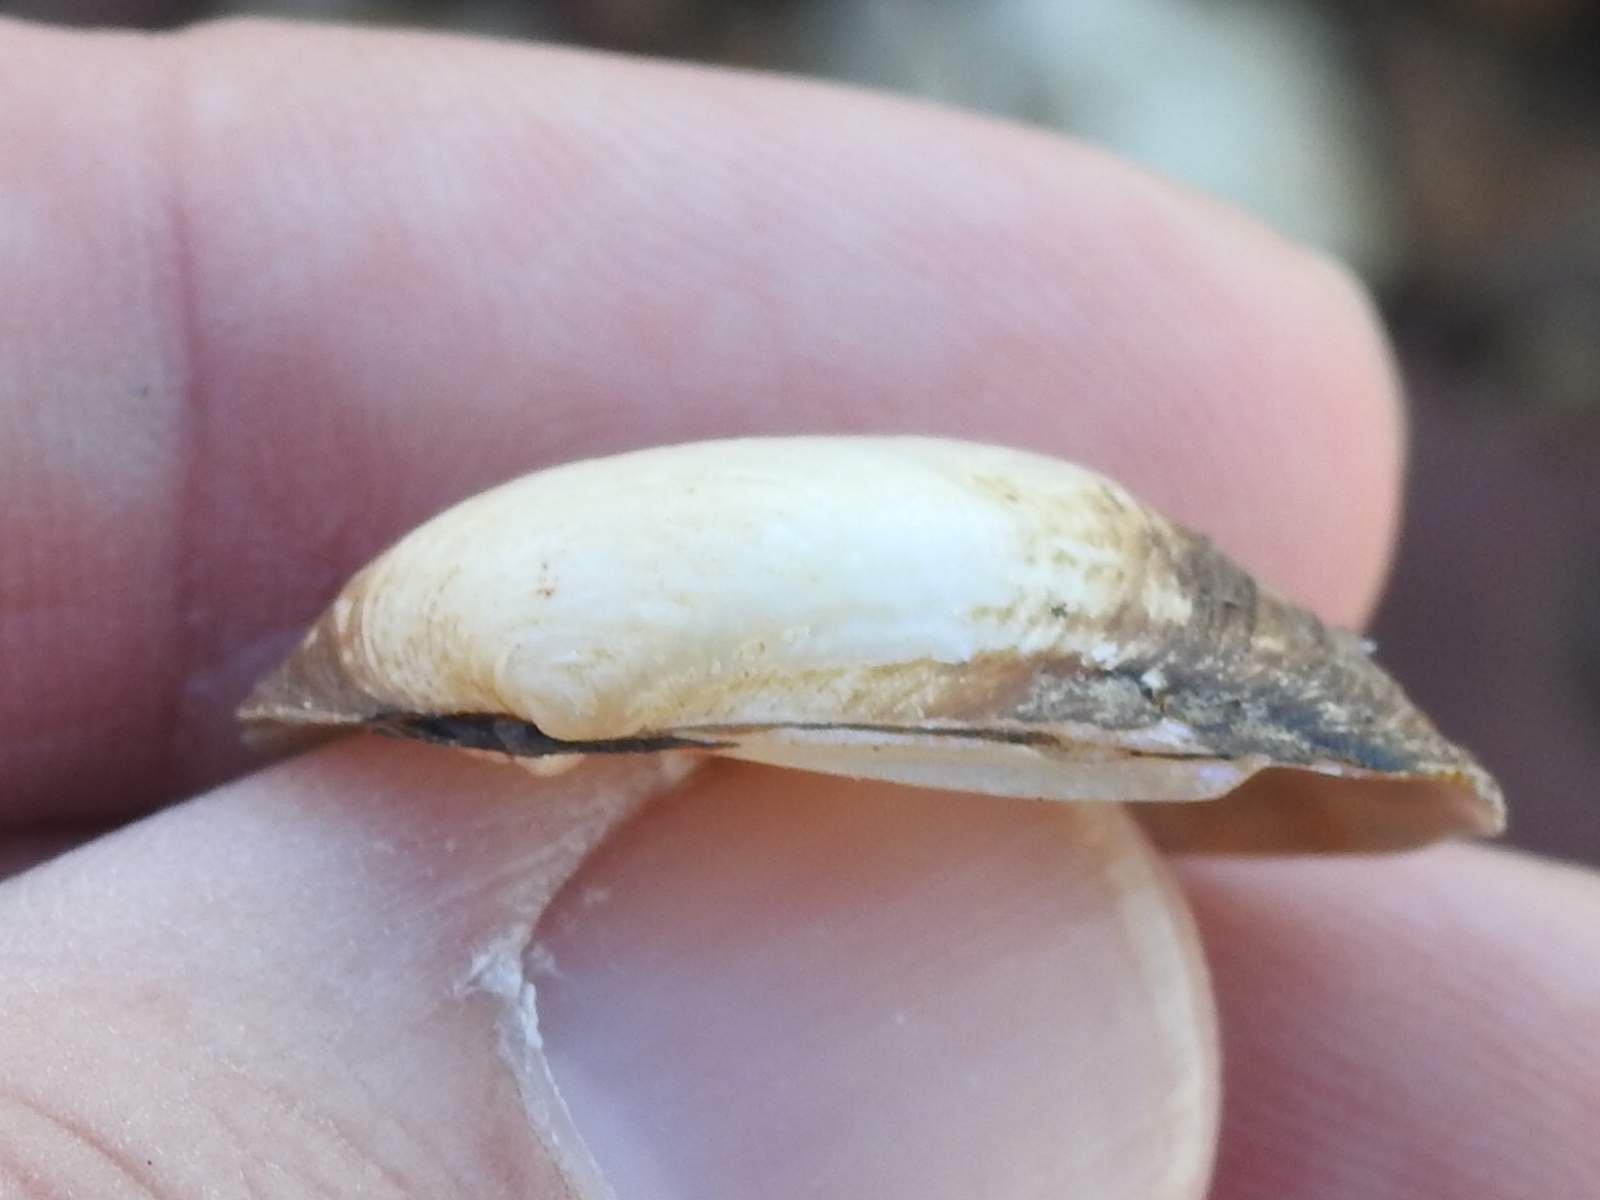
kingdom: Animalia
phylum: Mollusca
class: Bivalvia
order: Unionida
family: Unionidae
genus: Toxolasma
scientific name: Toxolasma parvum
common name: Lilliput
